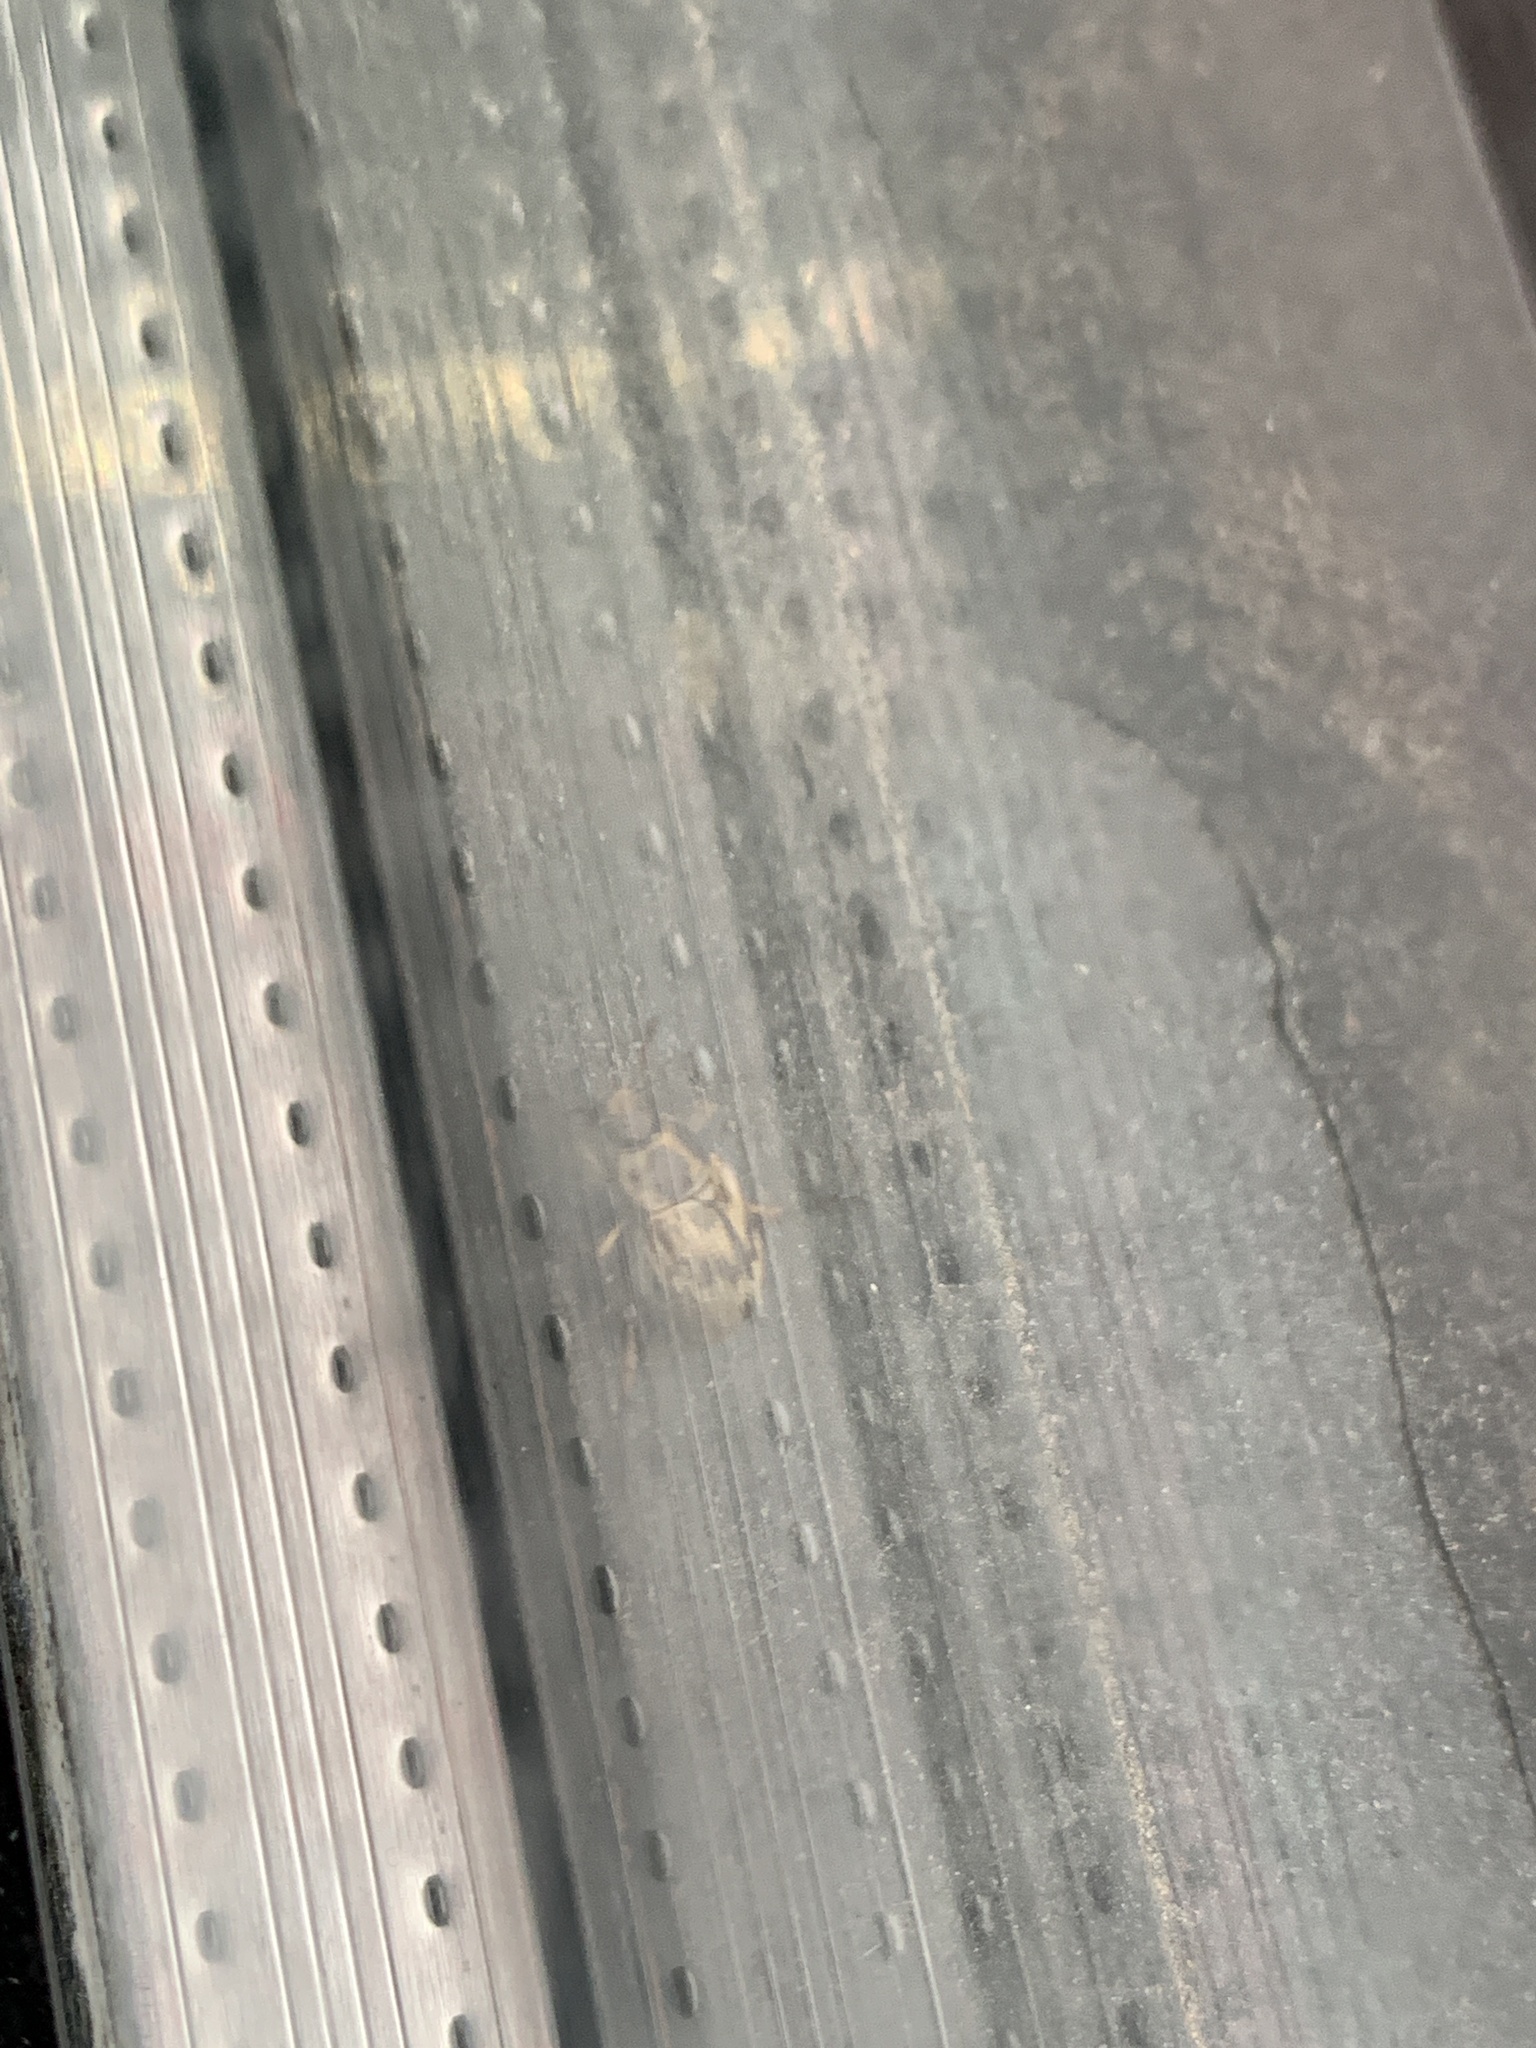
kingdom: Animalia
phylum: Arthropoda
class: Insecta
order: Coleoptera
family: Scarabaeidae
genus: Exomala
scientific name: Exomala orientalis
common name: Oriental beetle
